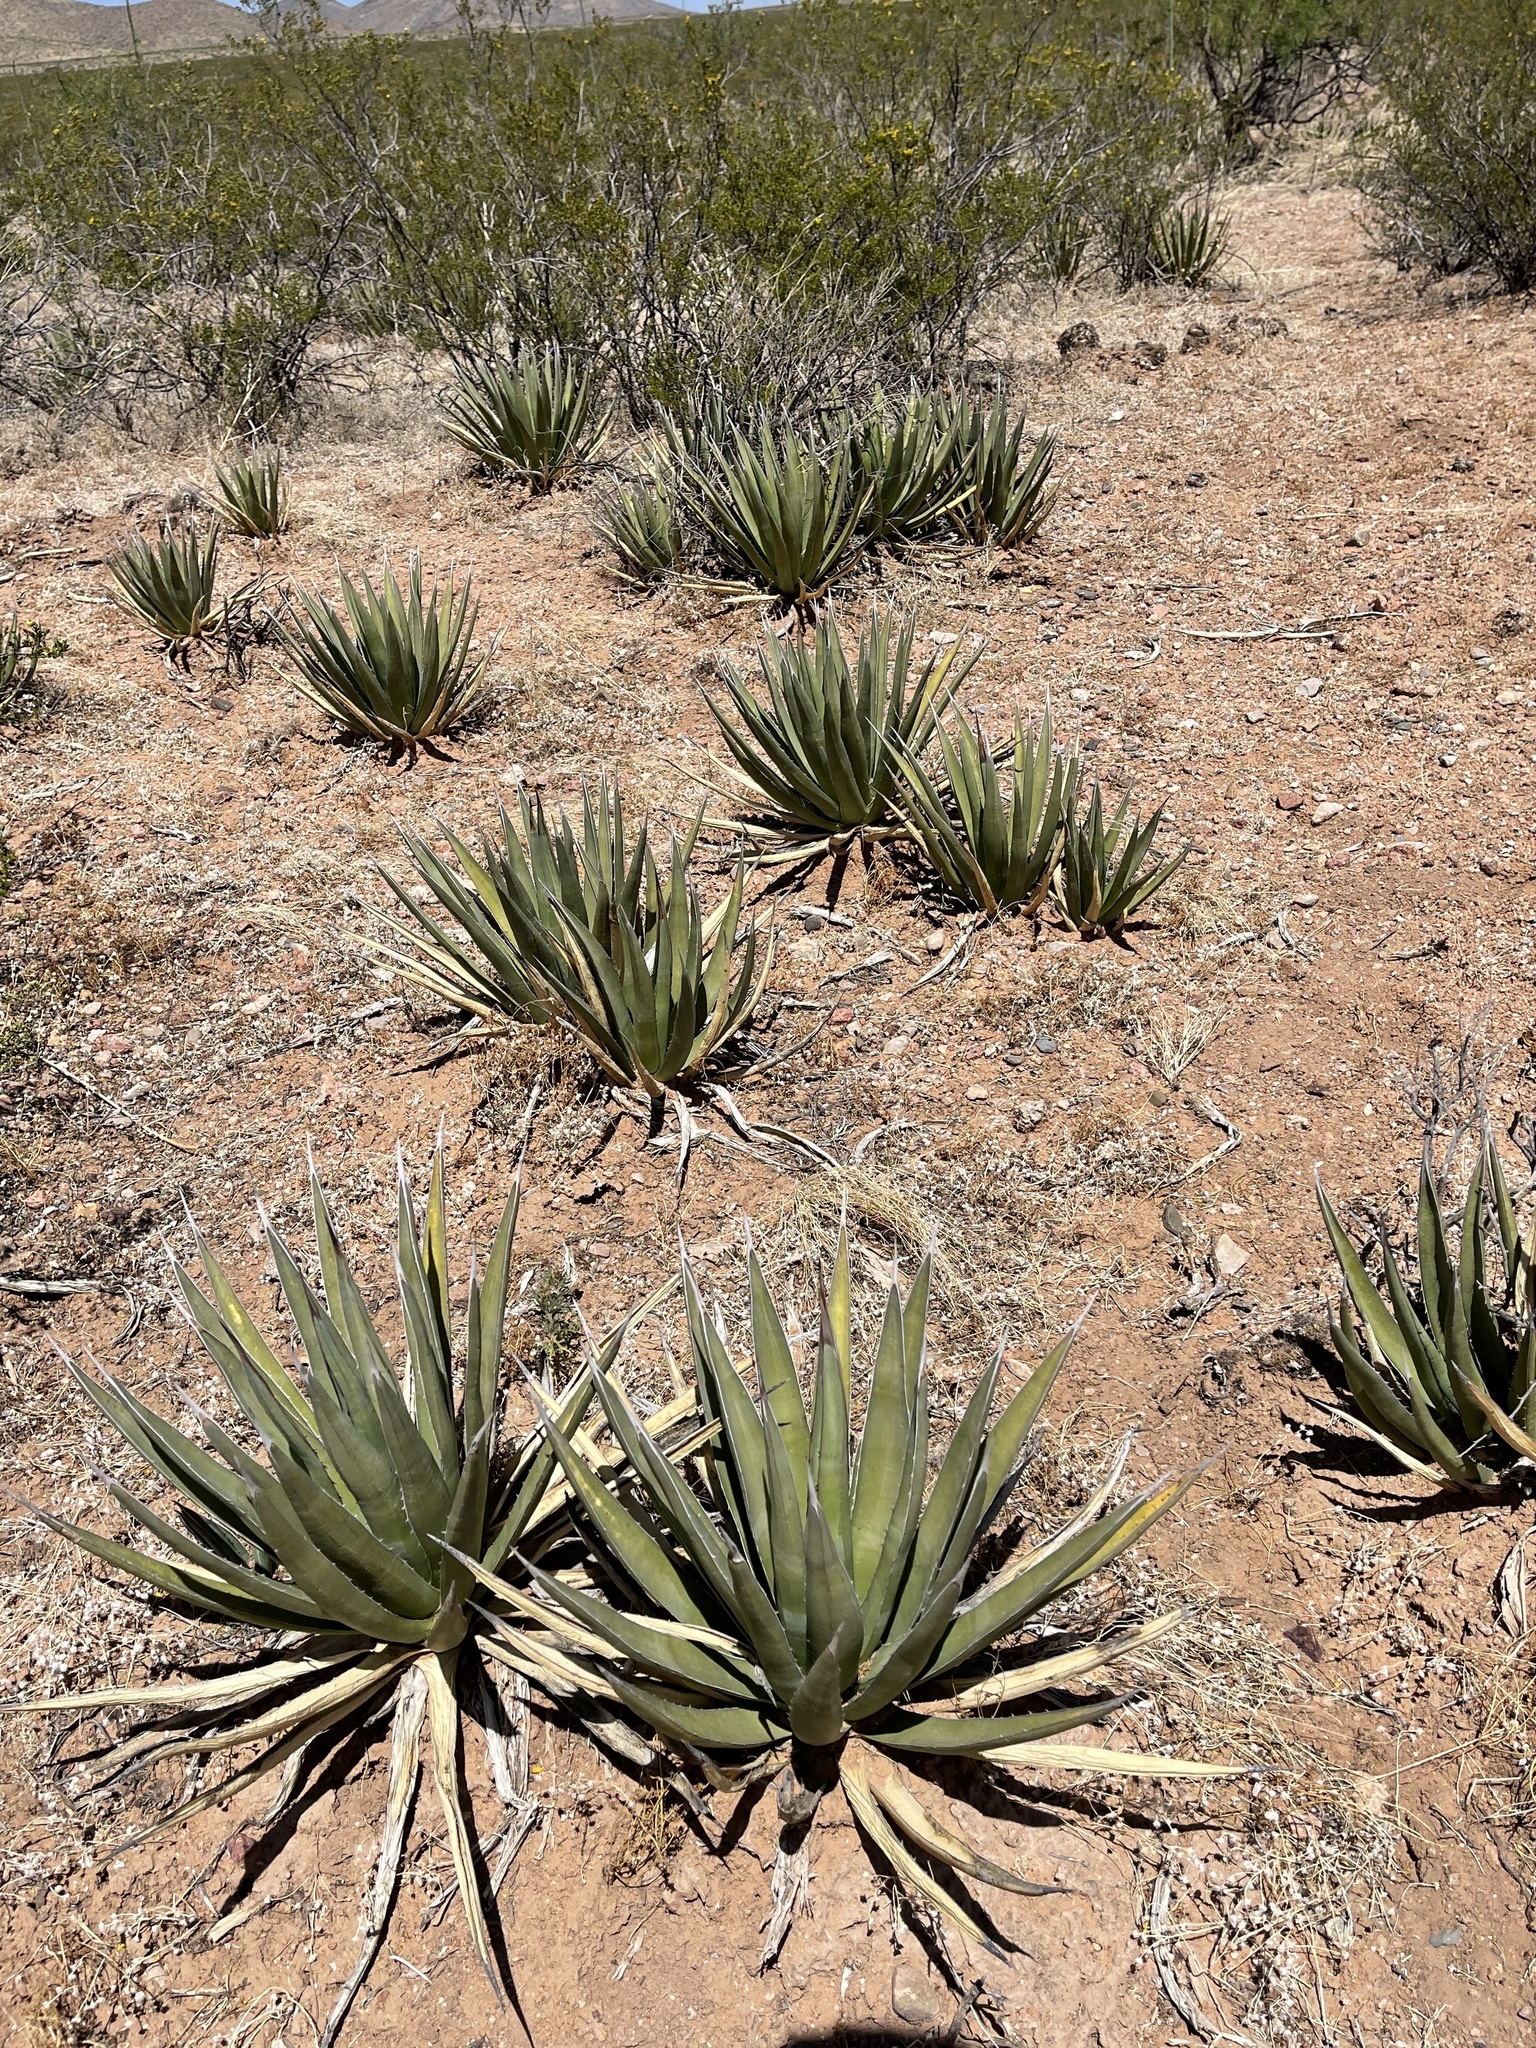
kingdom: Plantae
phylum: Tracheophyta
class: Liliopsida
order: Asparagales
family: Asparagaceae
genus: Agave
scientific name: Agave lechuguilla
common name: Lecheguilla agave
